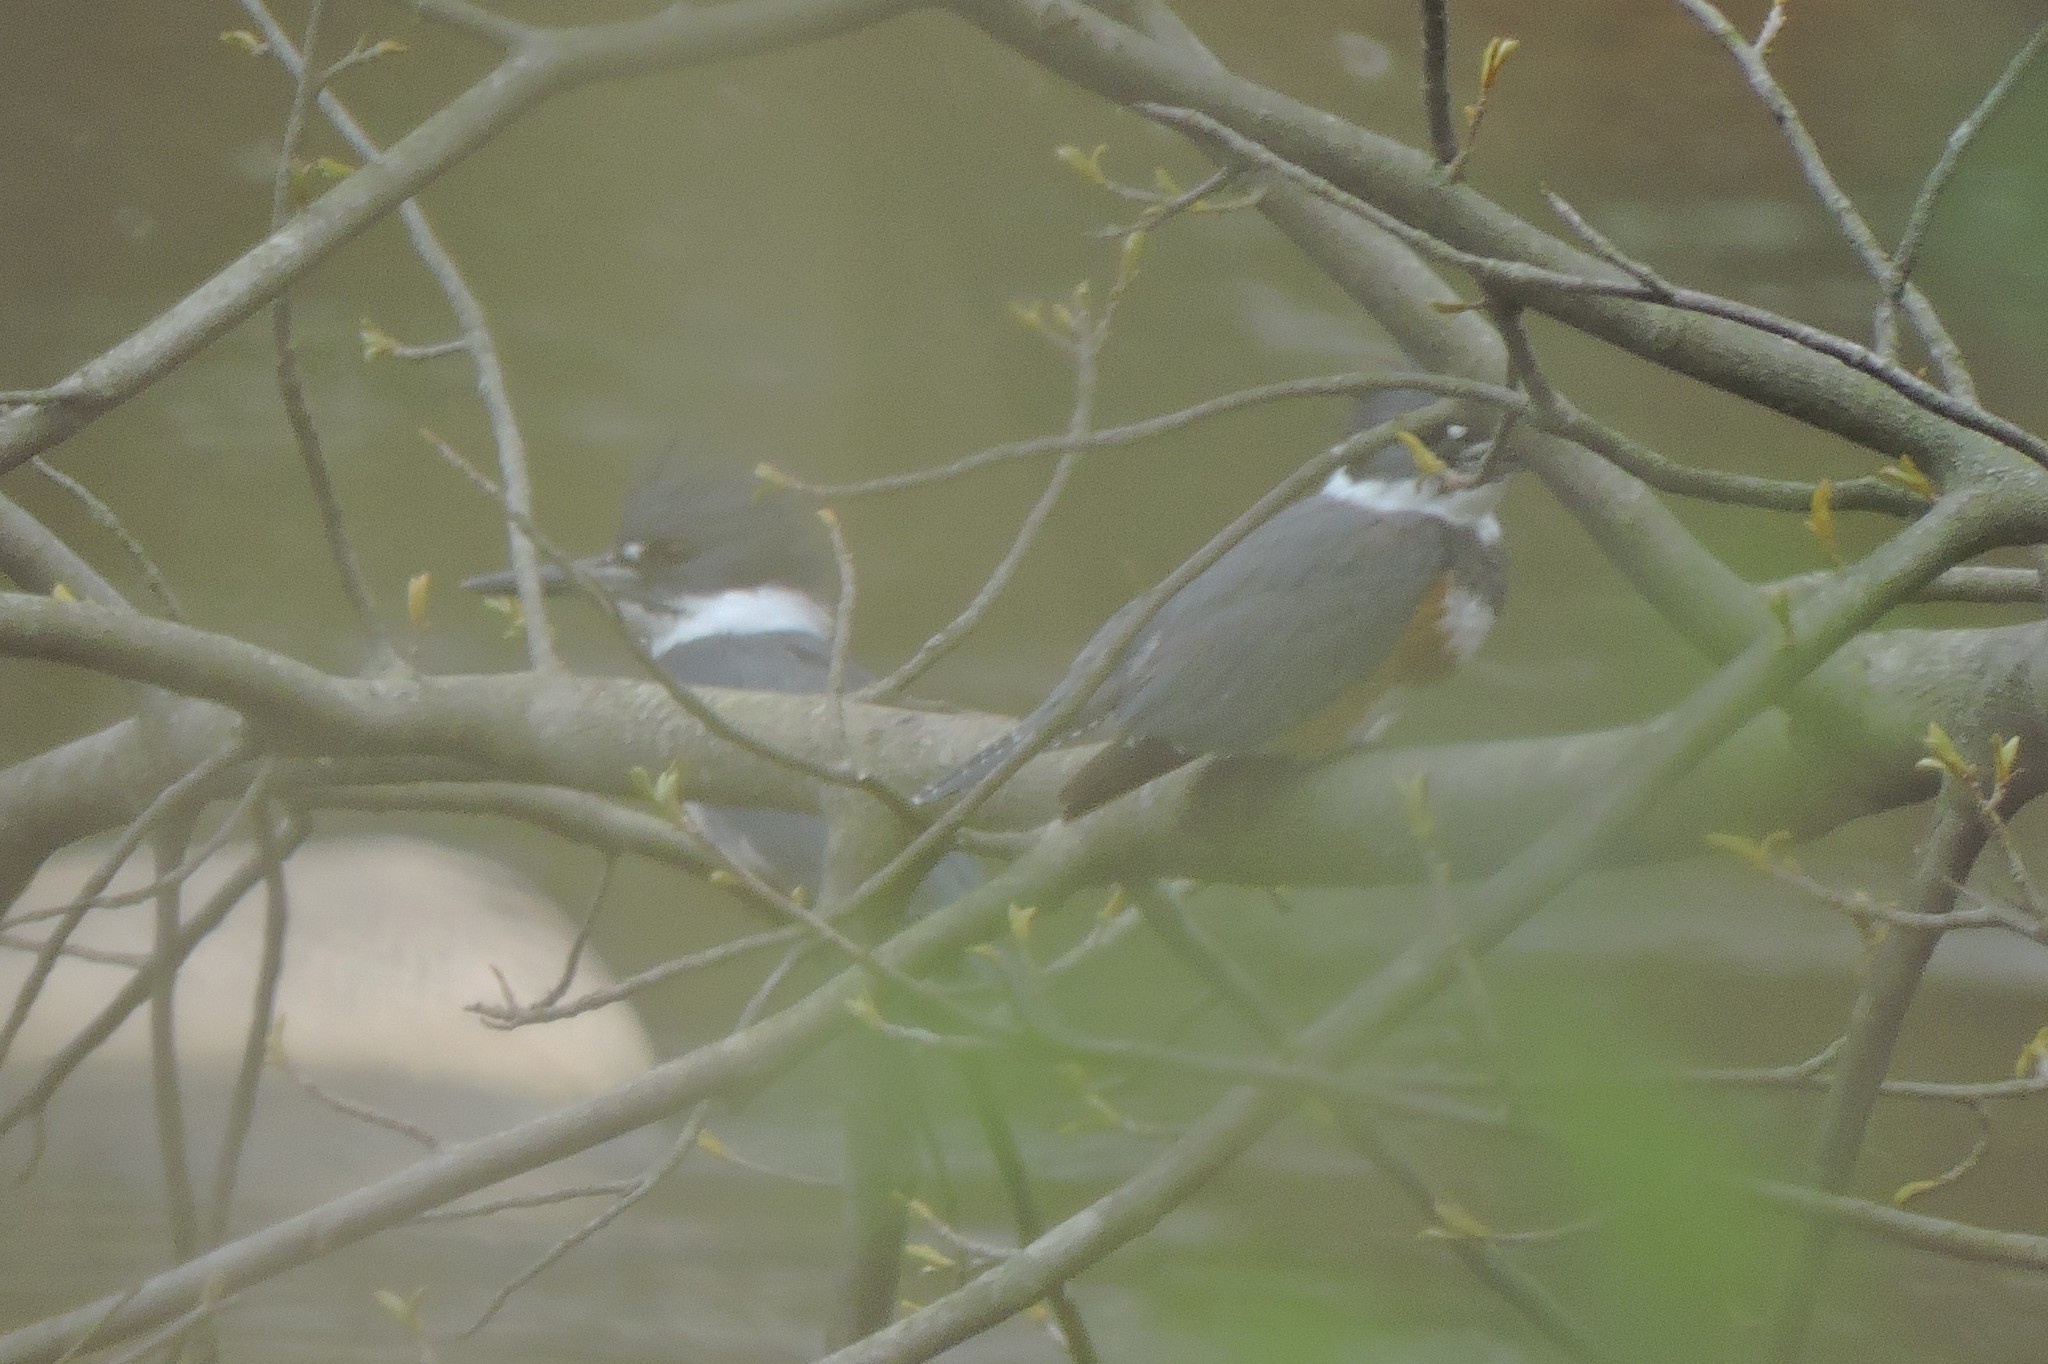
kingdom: Animalia
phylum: Chordata
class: Aves
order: Coraciiformes
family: Alcedinidae
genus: Megaceryle
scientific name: Megaceryle alcyon
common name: Belted kingfisher
